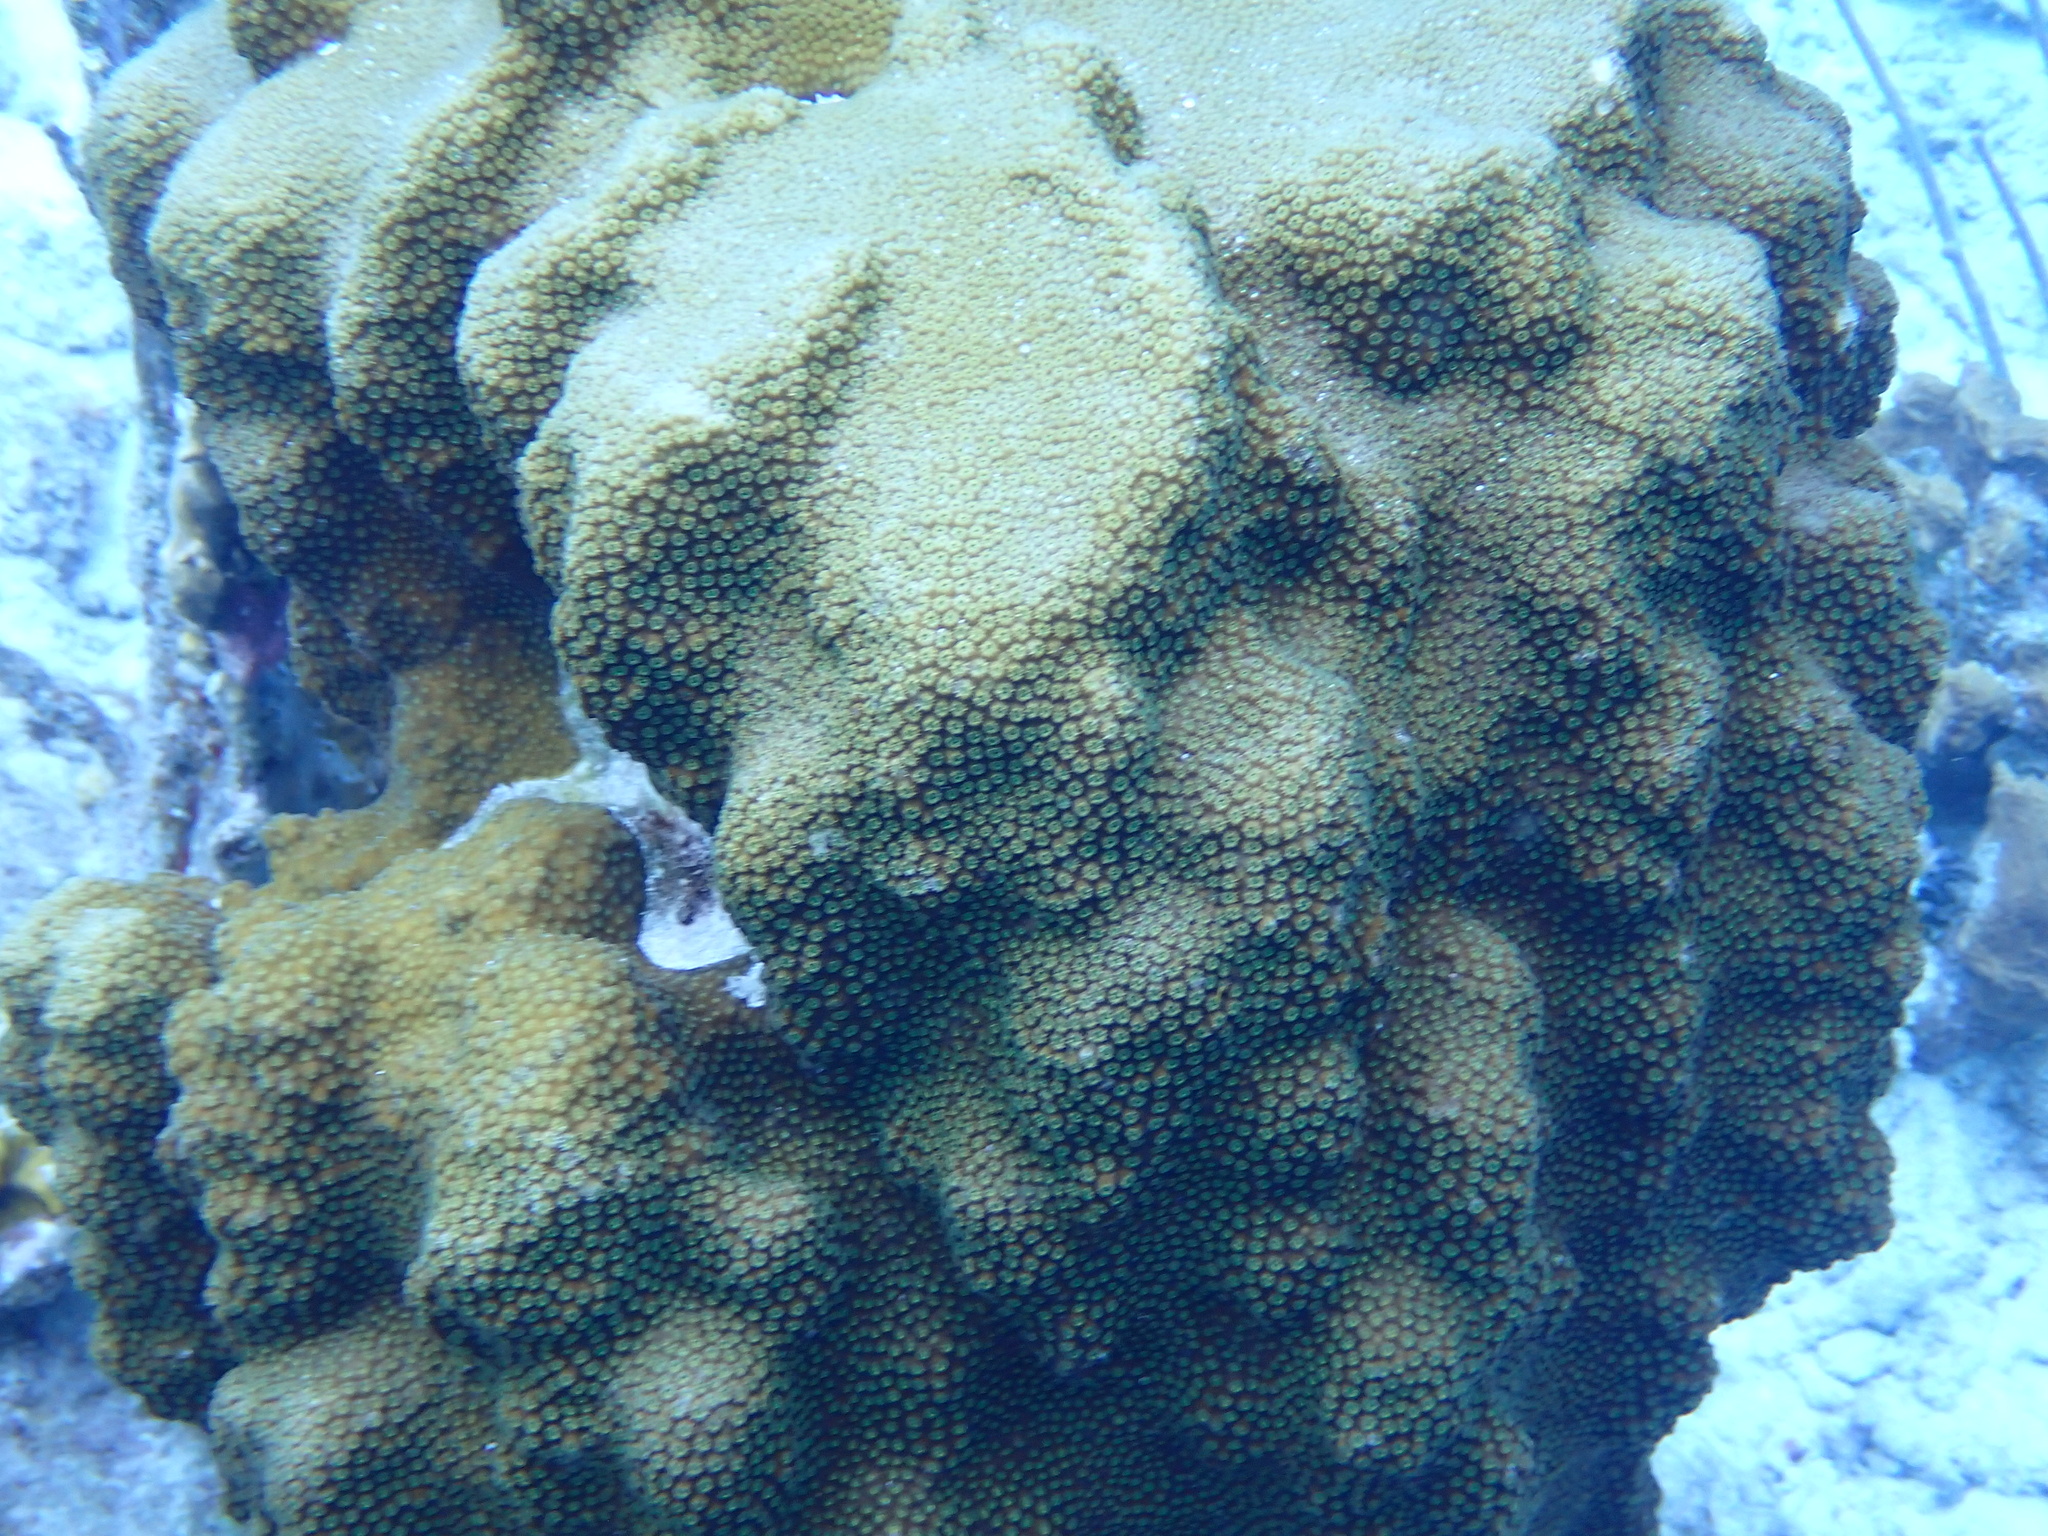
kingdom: Animalia
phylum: Cnidaria
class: Anthozoa
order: Scleractinia
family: Merulinidae
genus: Orbicella
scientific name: Orbicella faveolata
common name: Mountainous star coral
